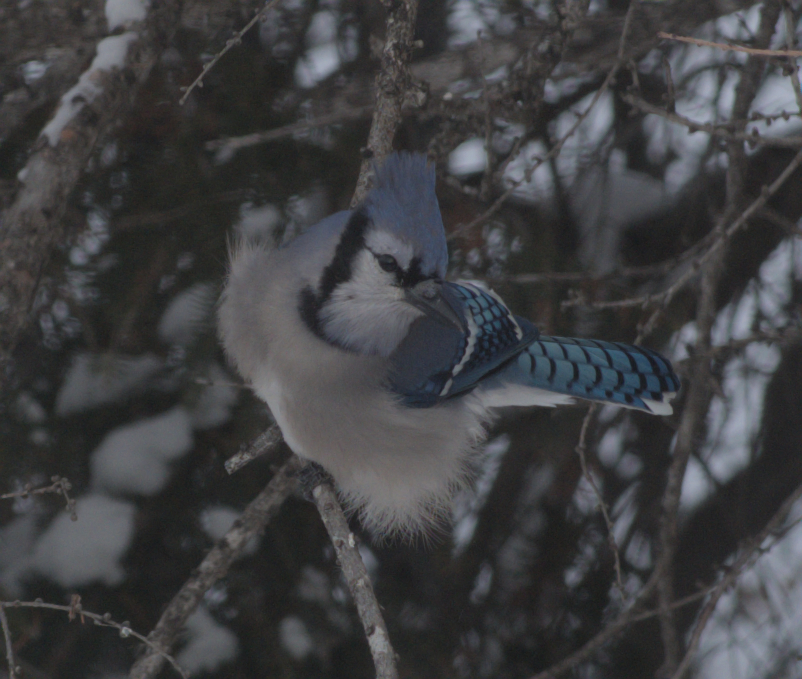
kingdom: Animalia
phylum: Chordata
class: Aves
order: Passeriformes
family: Corvidae
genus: Cyanocitta
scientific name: Cyanocitta cristata
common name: Blue jay
